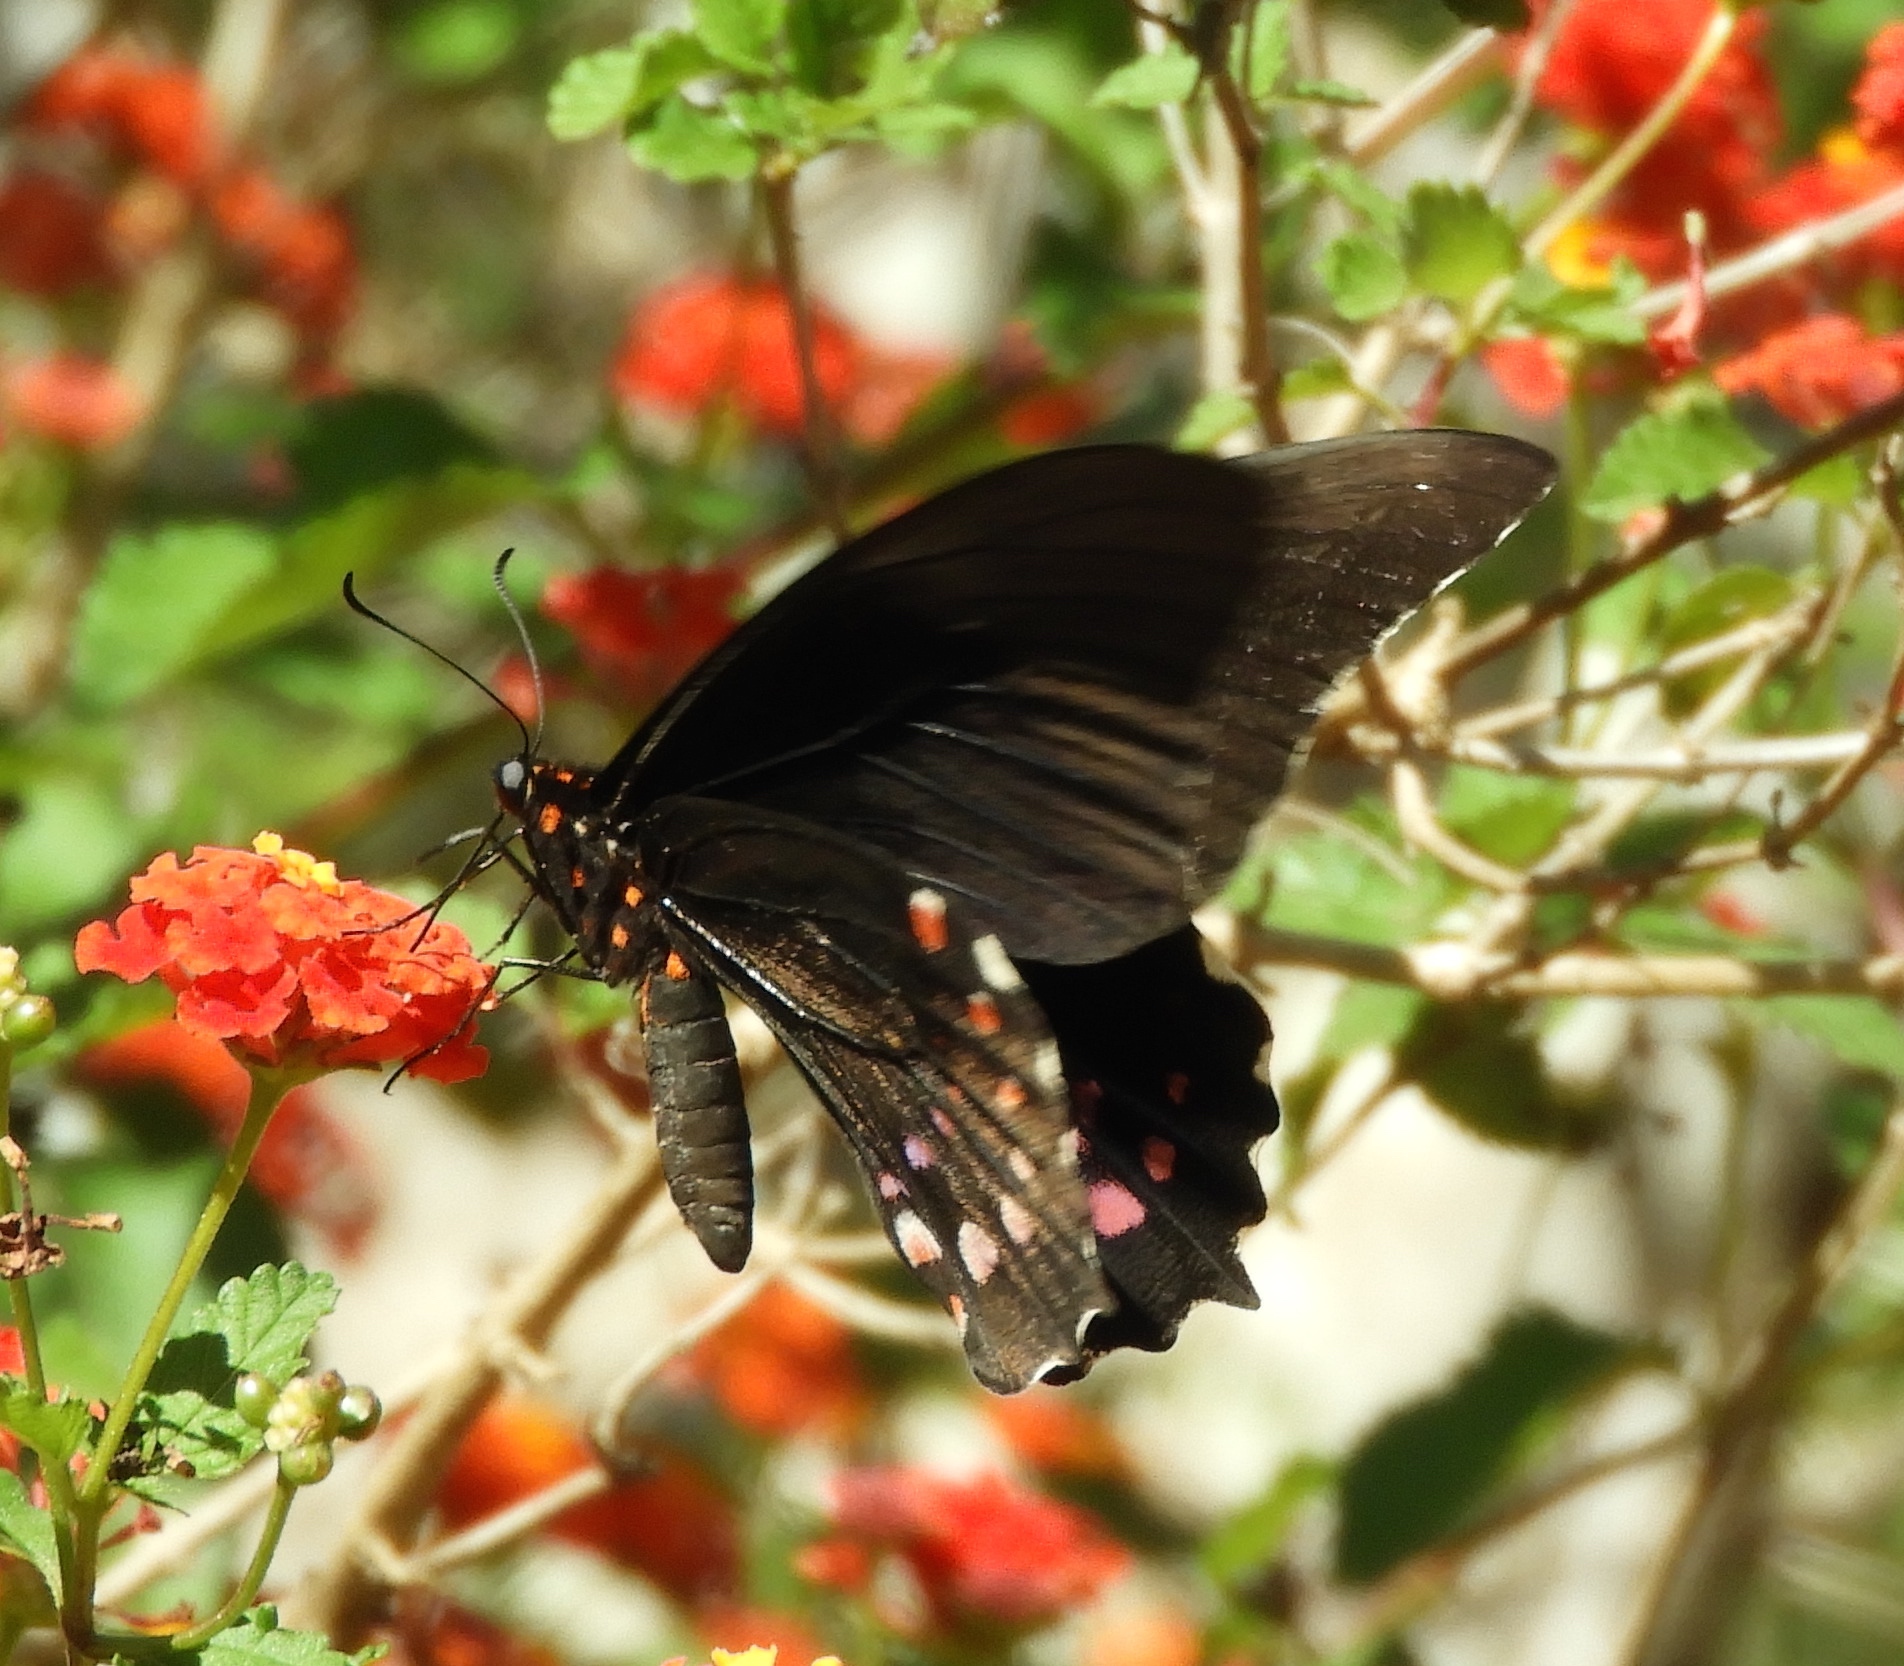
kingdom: Animalia
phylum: Arthropoda
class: Insecta
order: Lepidoptera
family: Papilionidae
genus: Heraclides
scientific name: Heraclides rogeri
